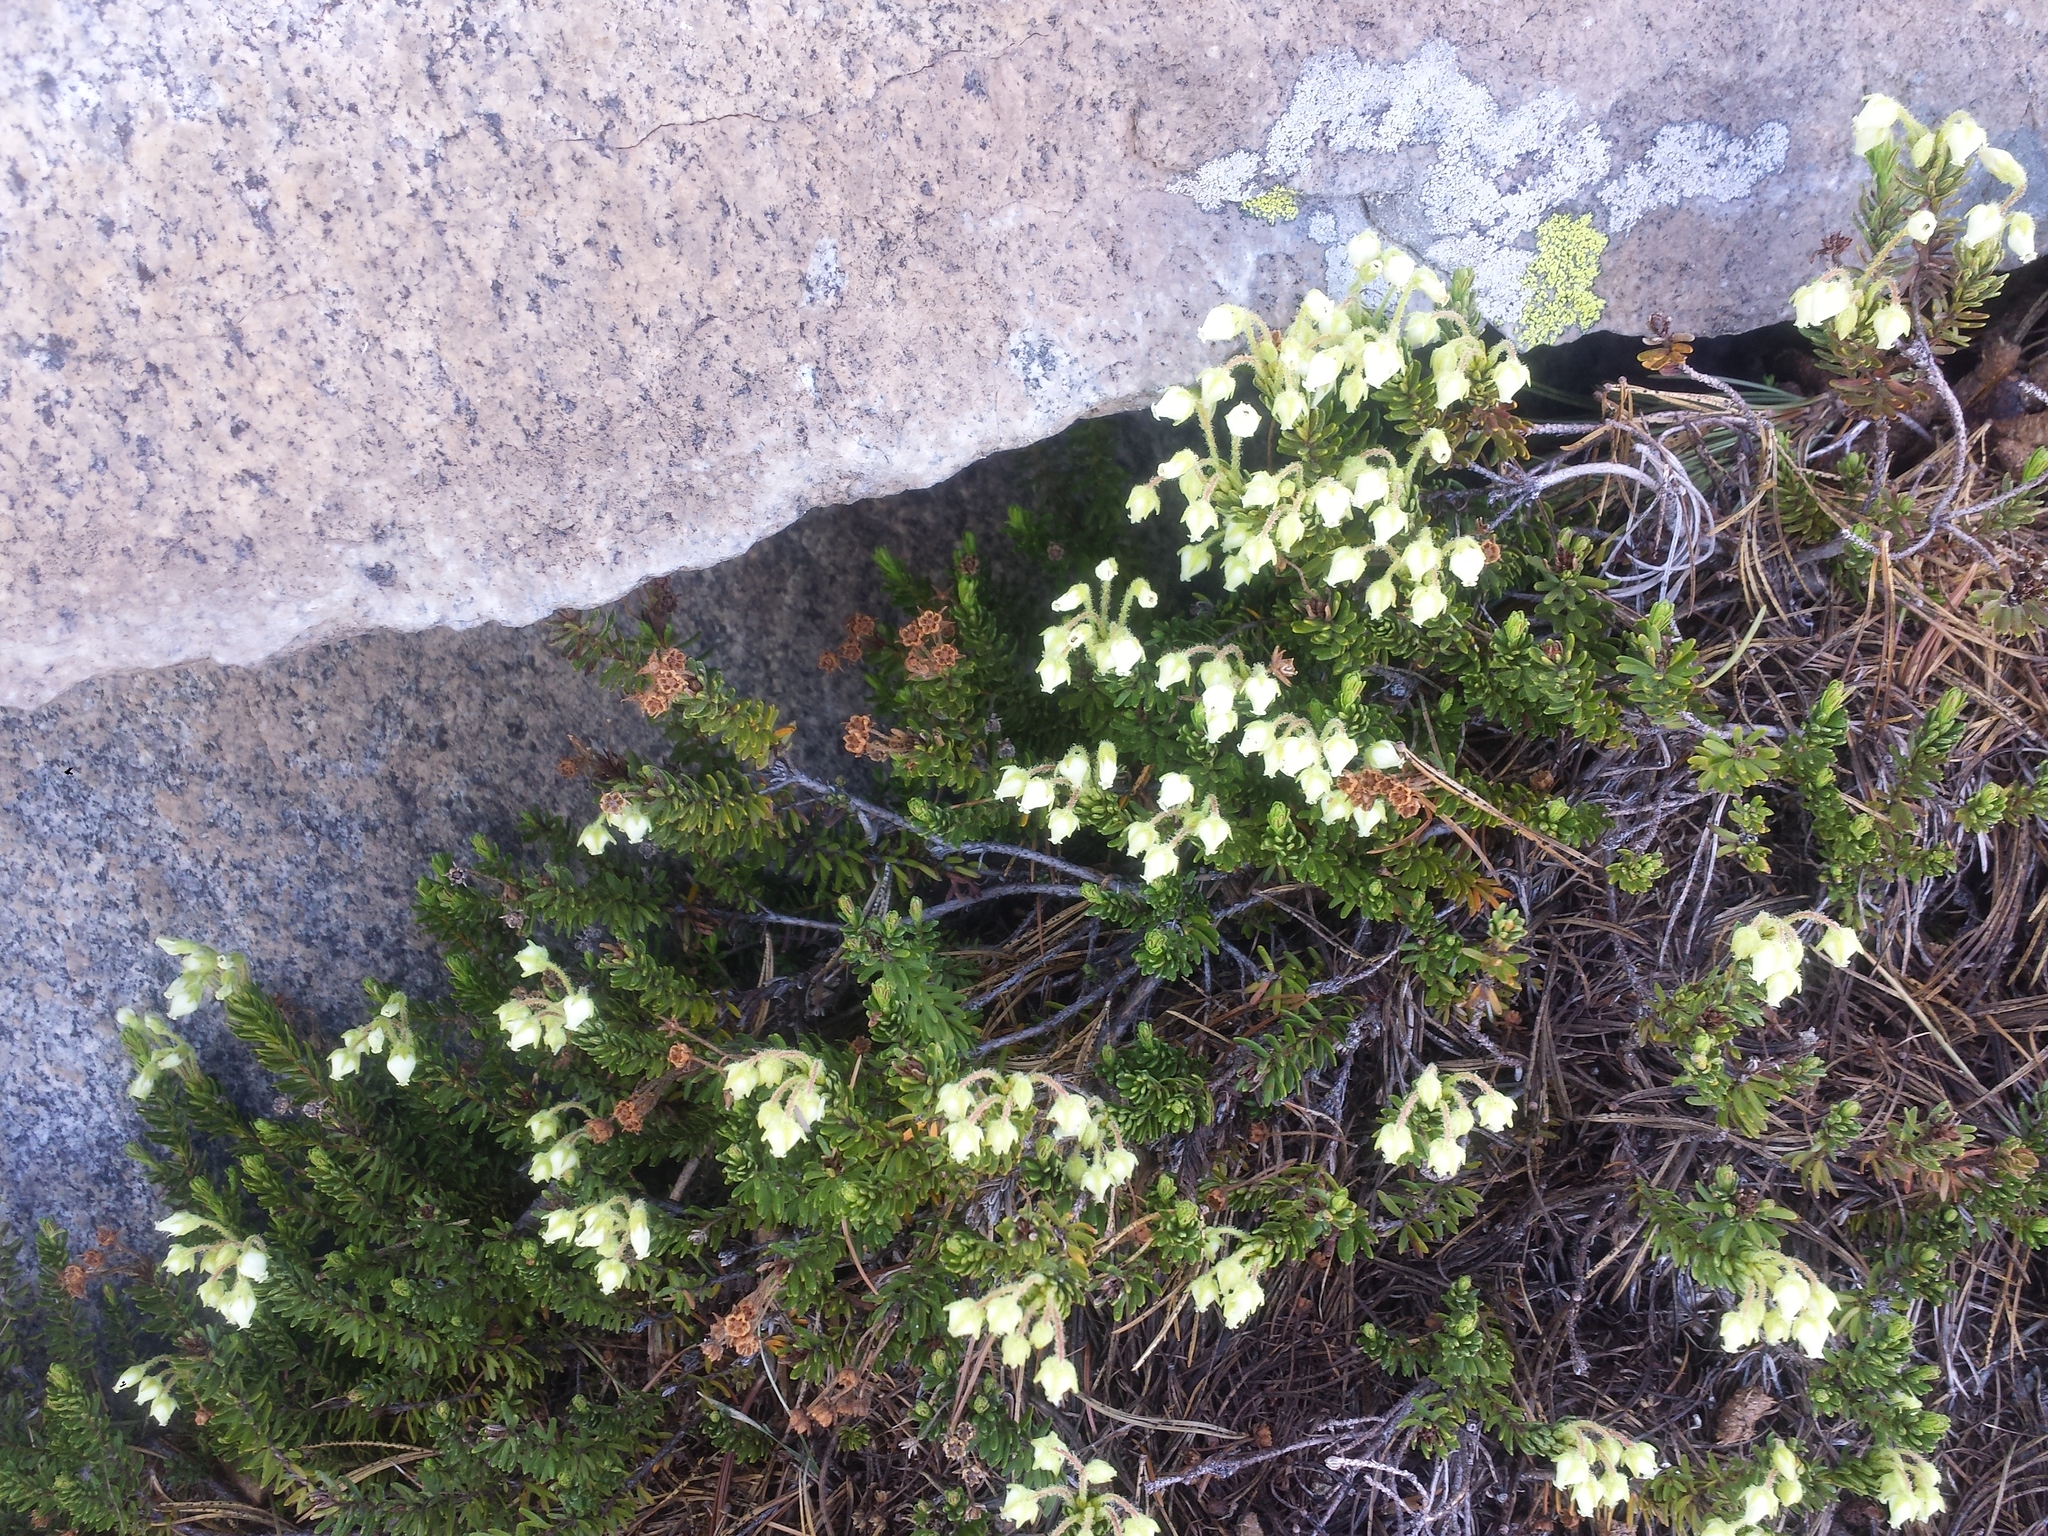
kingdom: Plantae
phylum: Tracheophyta
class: Magnoliopsida
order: Ericales
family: Ericaceae
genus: Phyllodoce
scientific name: Phyllodoce glanduliflora
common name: Cream mountain heather
